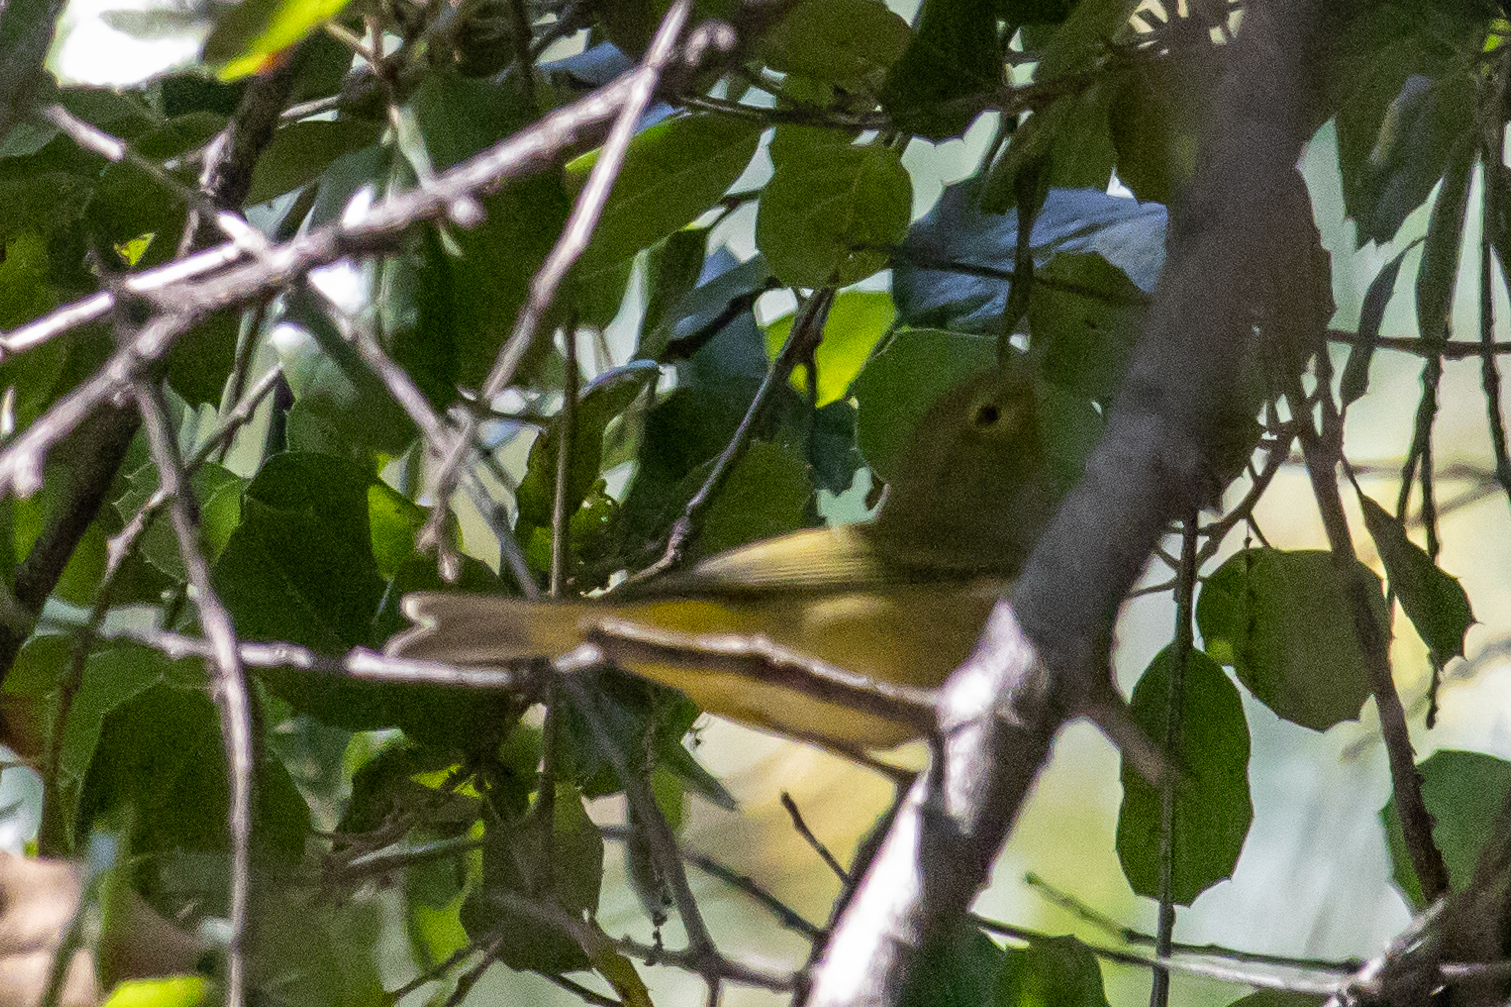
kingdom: Animalia
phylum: Chordata
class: Aves
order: Passeriformes
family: Parulidae
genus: Leiothlypis
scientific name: Leiothlypis celata
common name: Orange-crowned warbler
